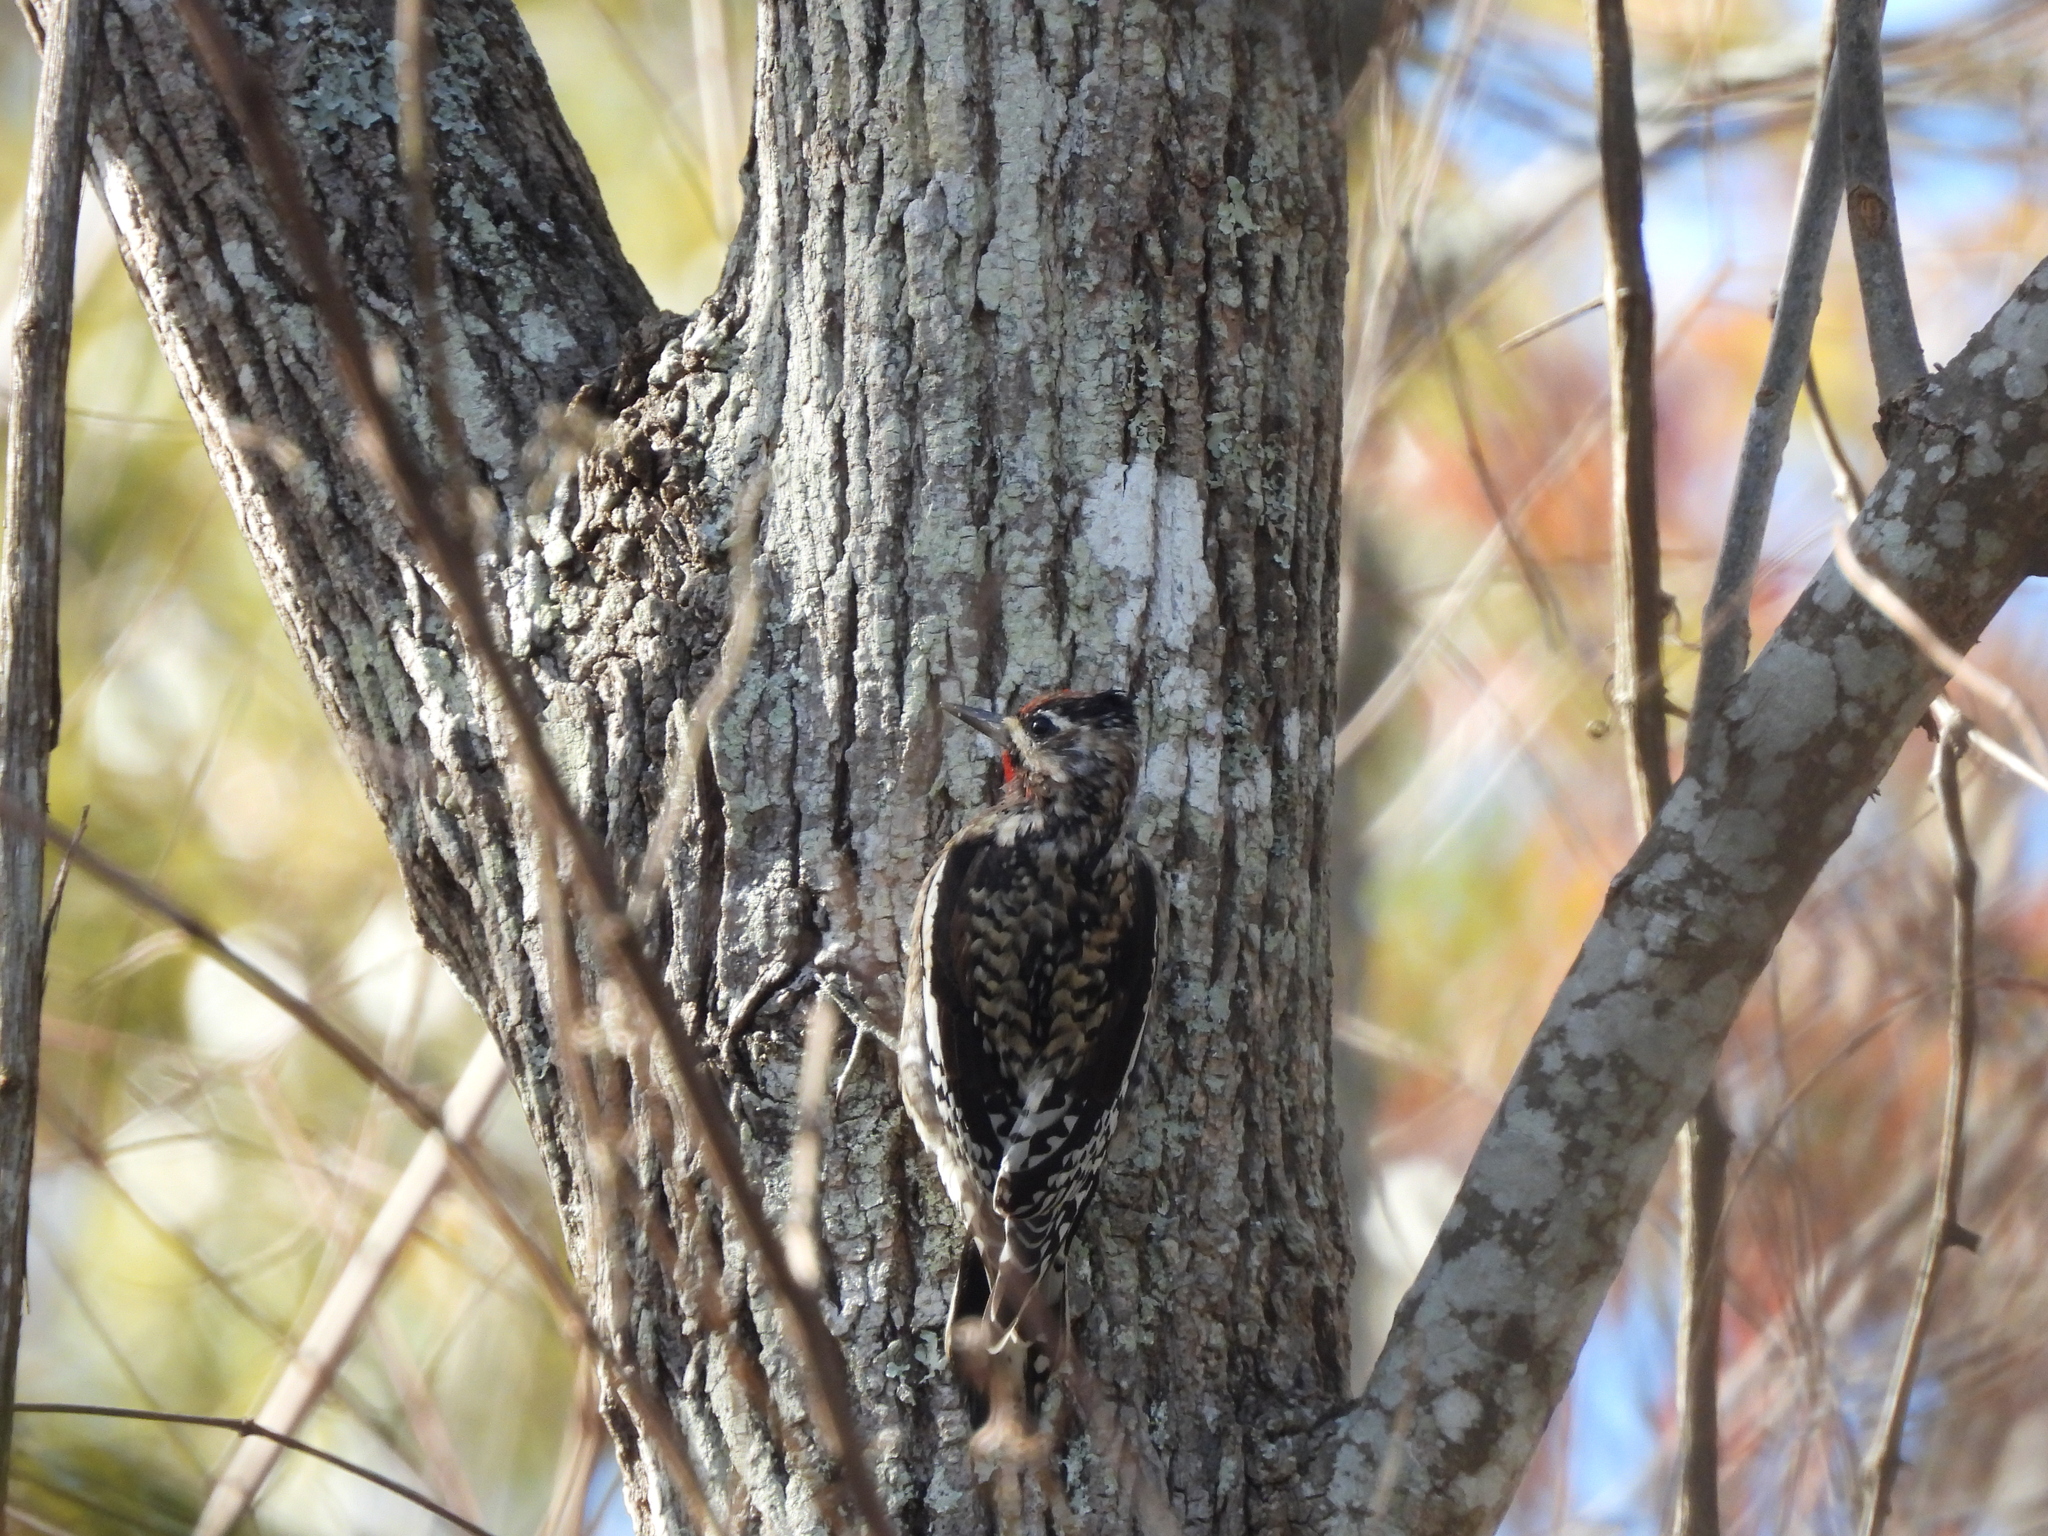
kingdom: Animalia
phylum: Chordata
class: Aves
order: Piciformes
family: Picidae
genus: Sphyrapicus
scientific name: Sphyrapicus varius
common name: Yellow-bellied sapsucker
